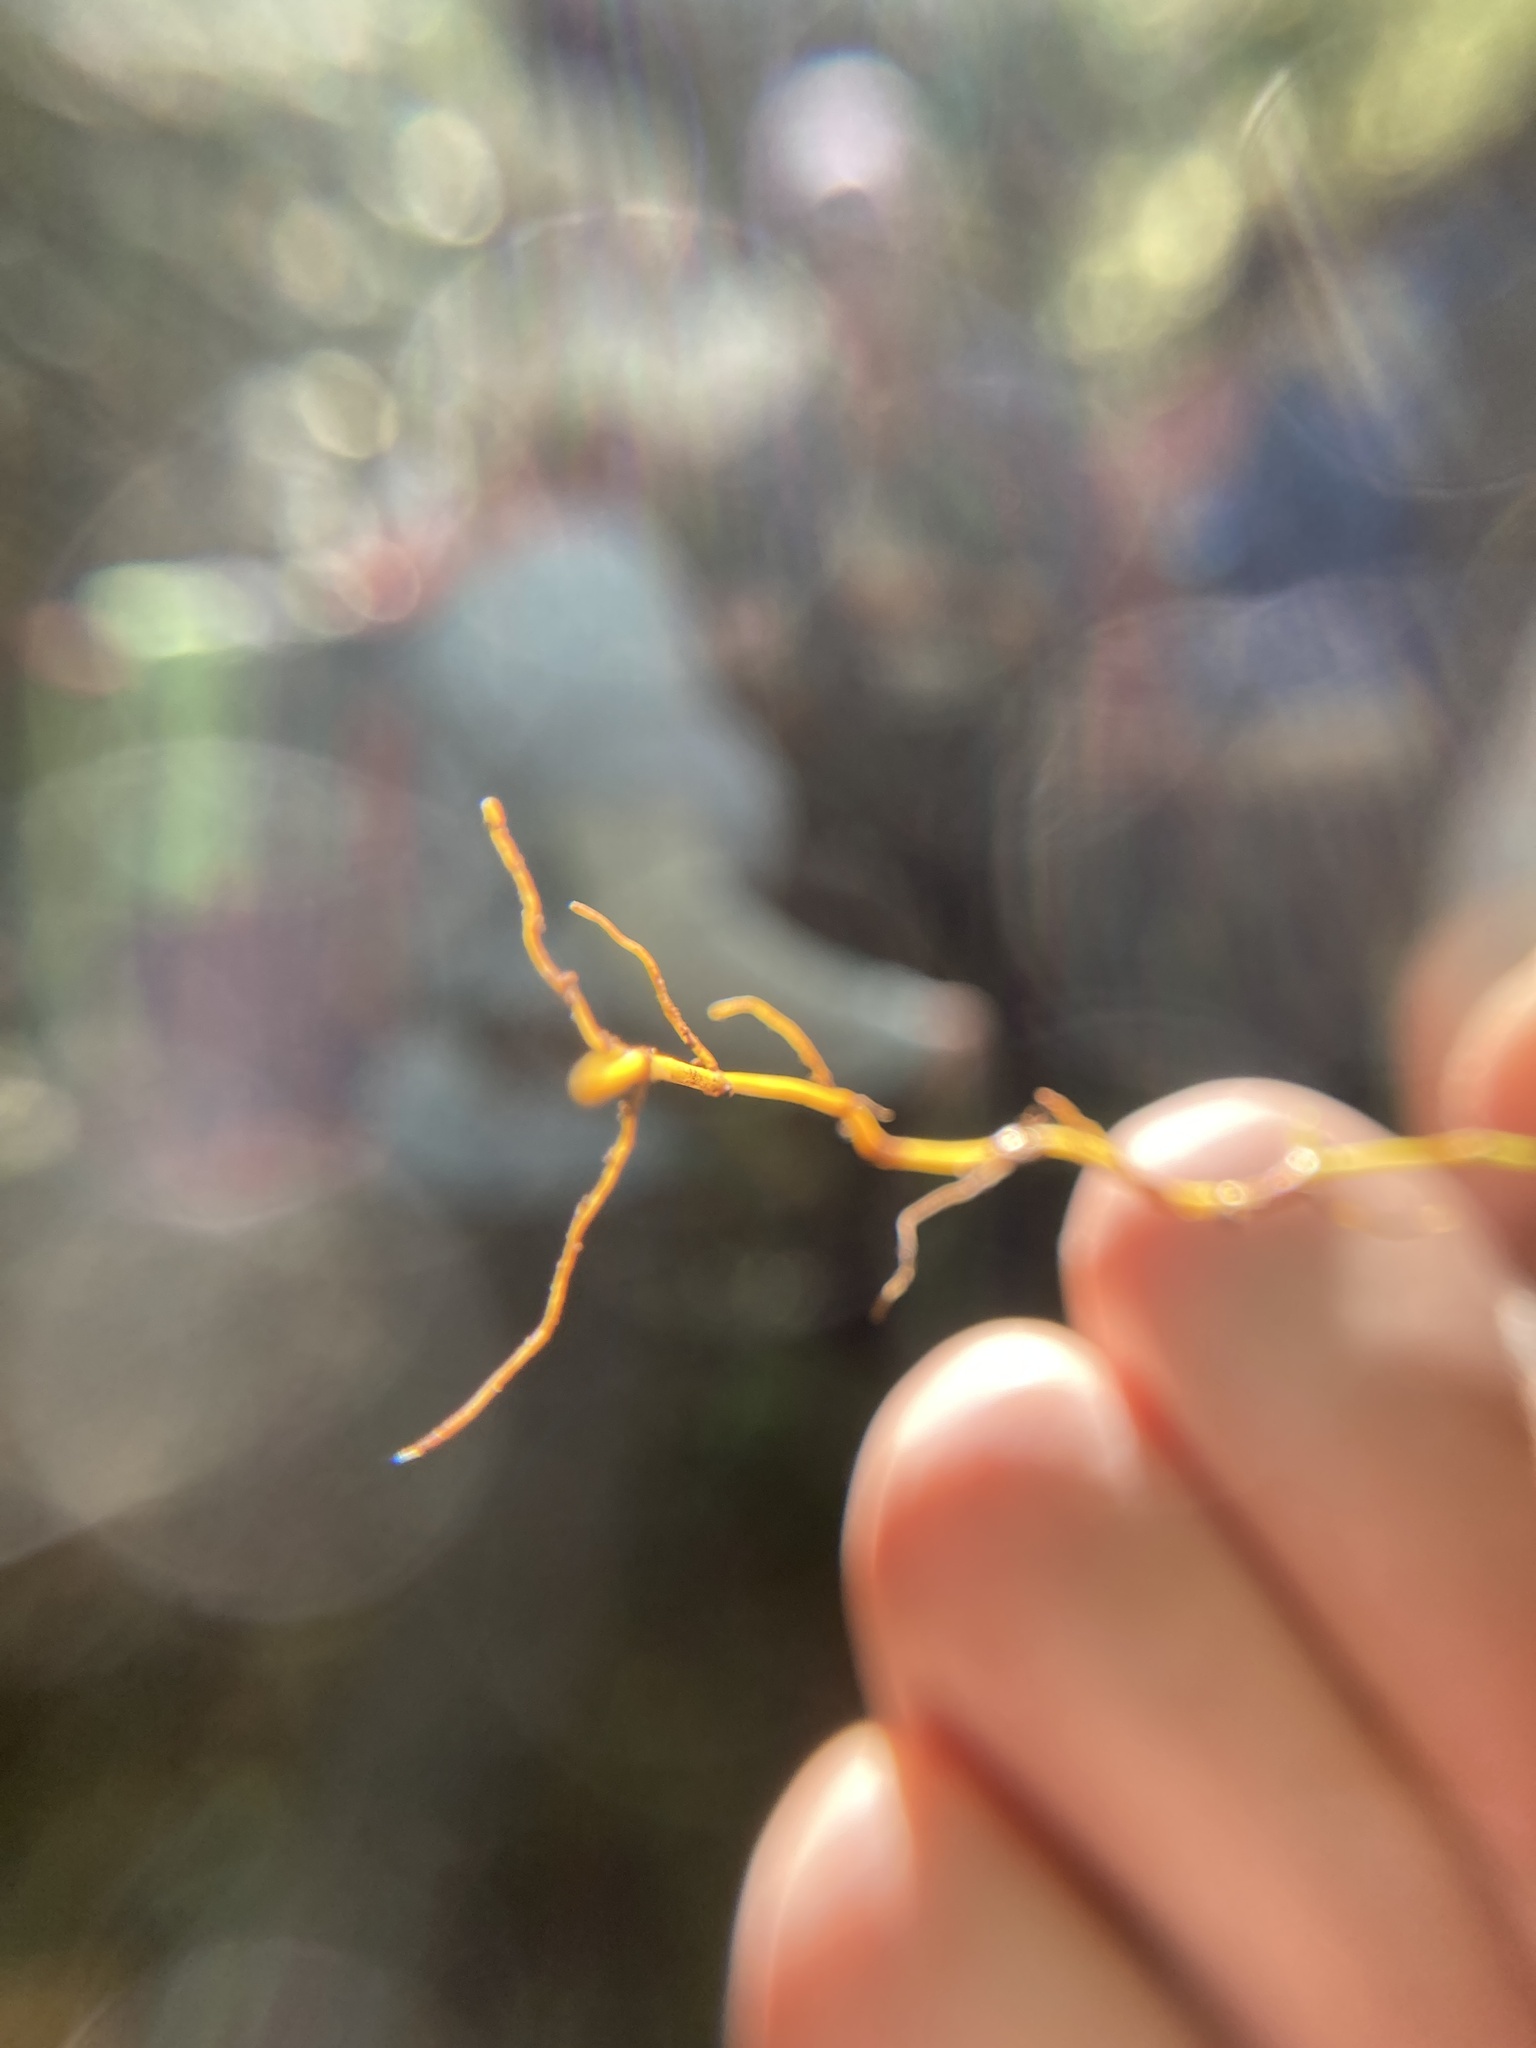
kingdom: Plantae
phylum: Tracheophyta
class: Magnoliopsida
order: Ranunculales
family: Ranunculaceae
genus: Coptis
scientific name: Coptis trifolia
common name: Canker-root
